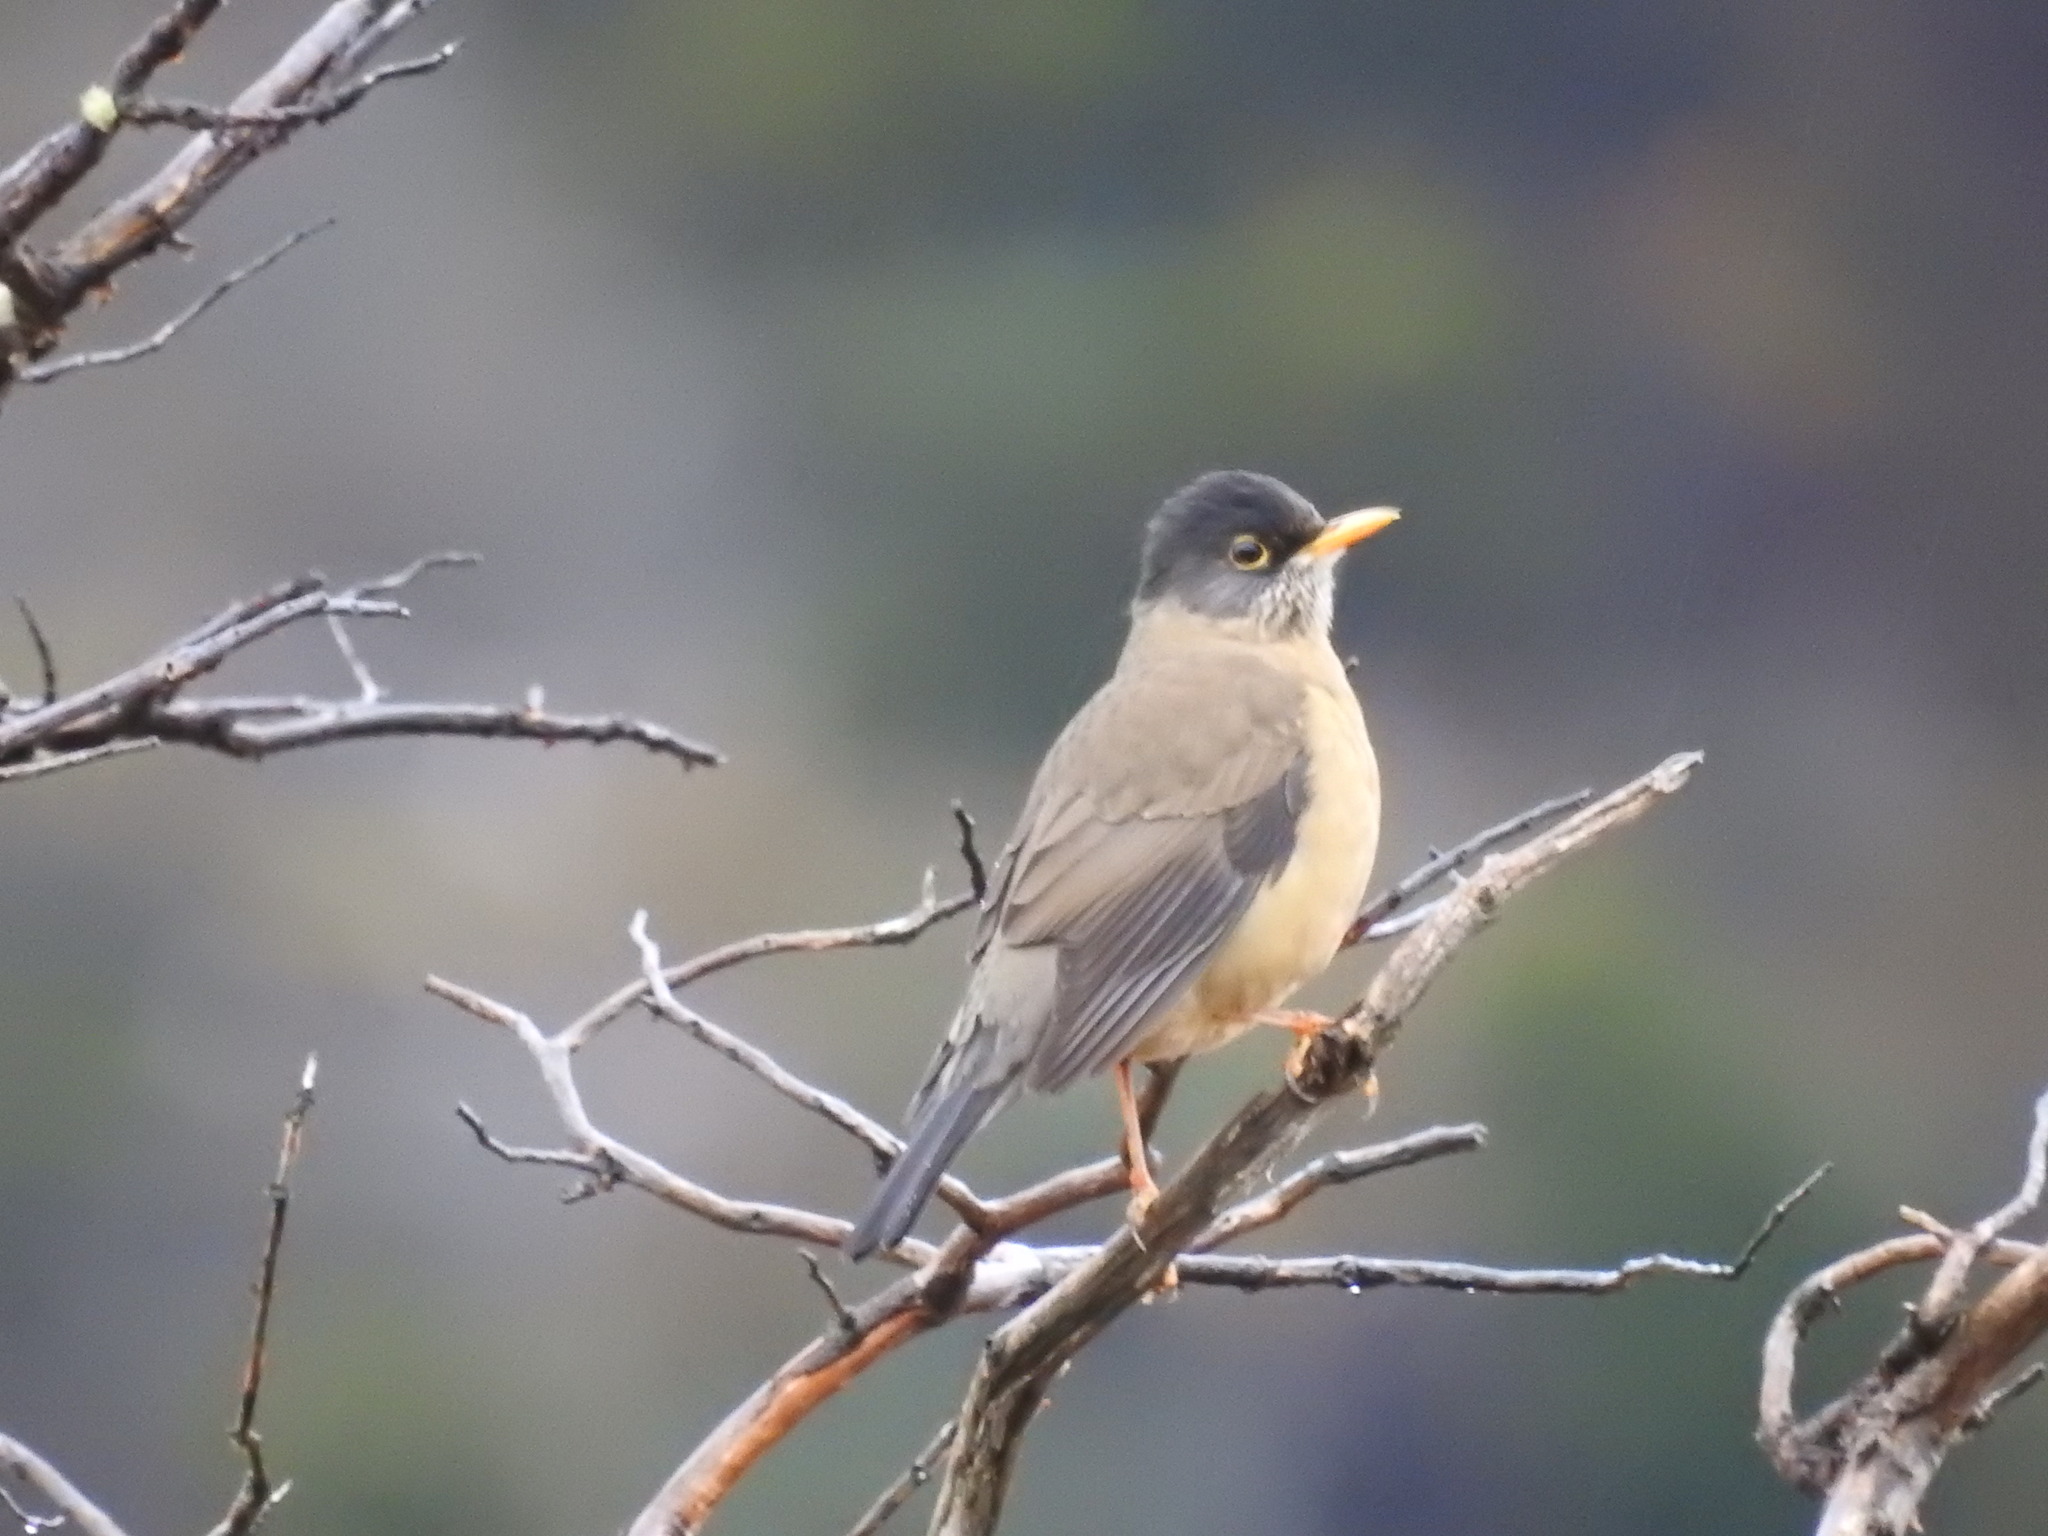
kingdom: Animalia
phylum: Chordata
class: Aves
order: Passeriformes
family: Turdidae
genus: Turdus
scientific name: Turdus falcklandii
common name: Austral thrush
